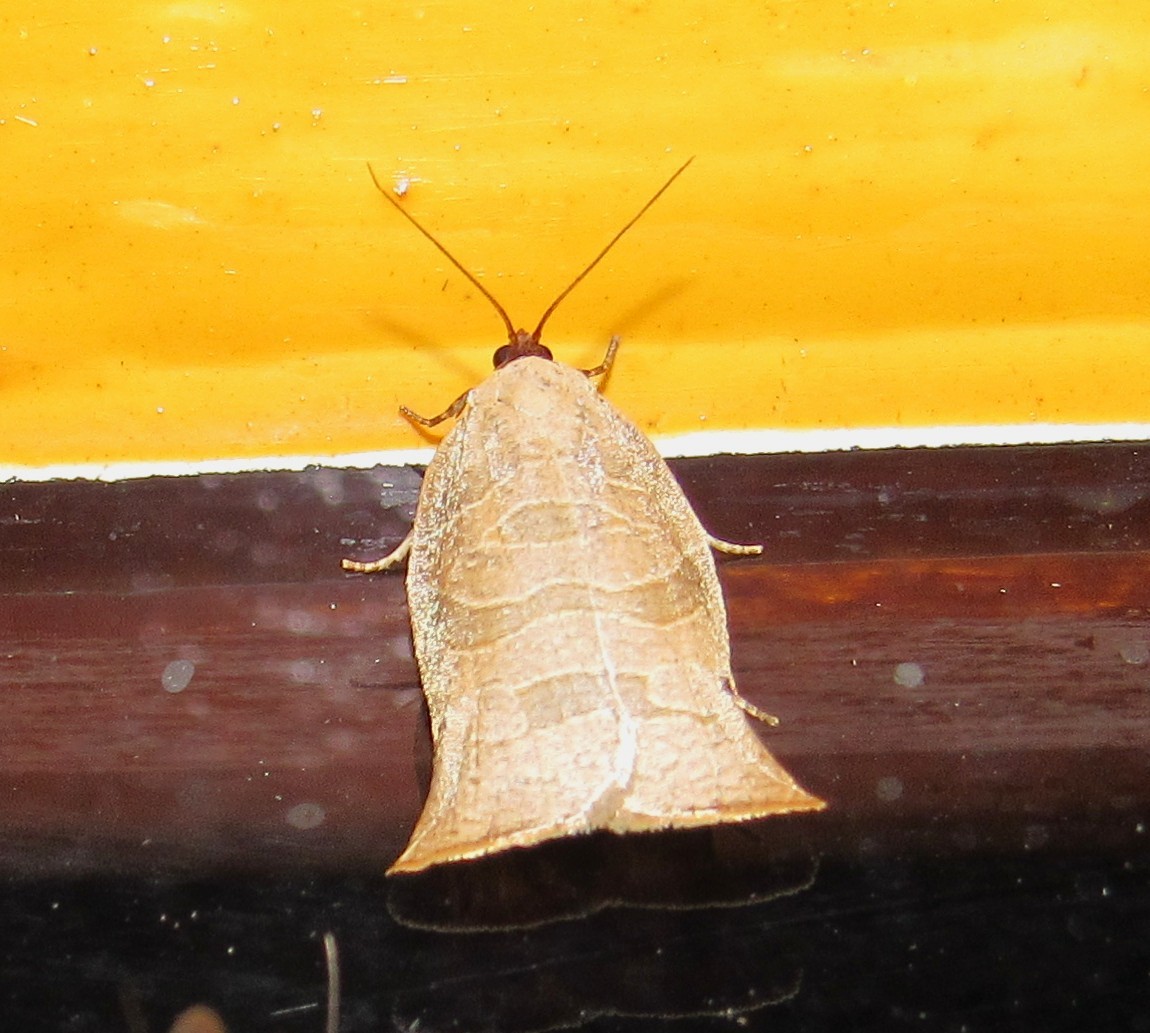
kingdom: Animalia
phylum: Arthropoda
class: Insecta
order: Lepidoptera
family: Tortricidae
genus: Archipimima
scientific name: Archipimima labyrinthopa
